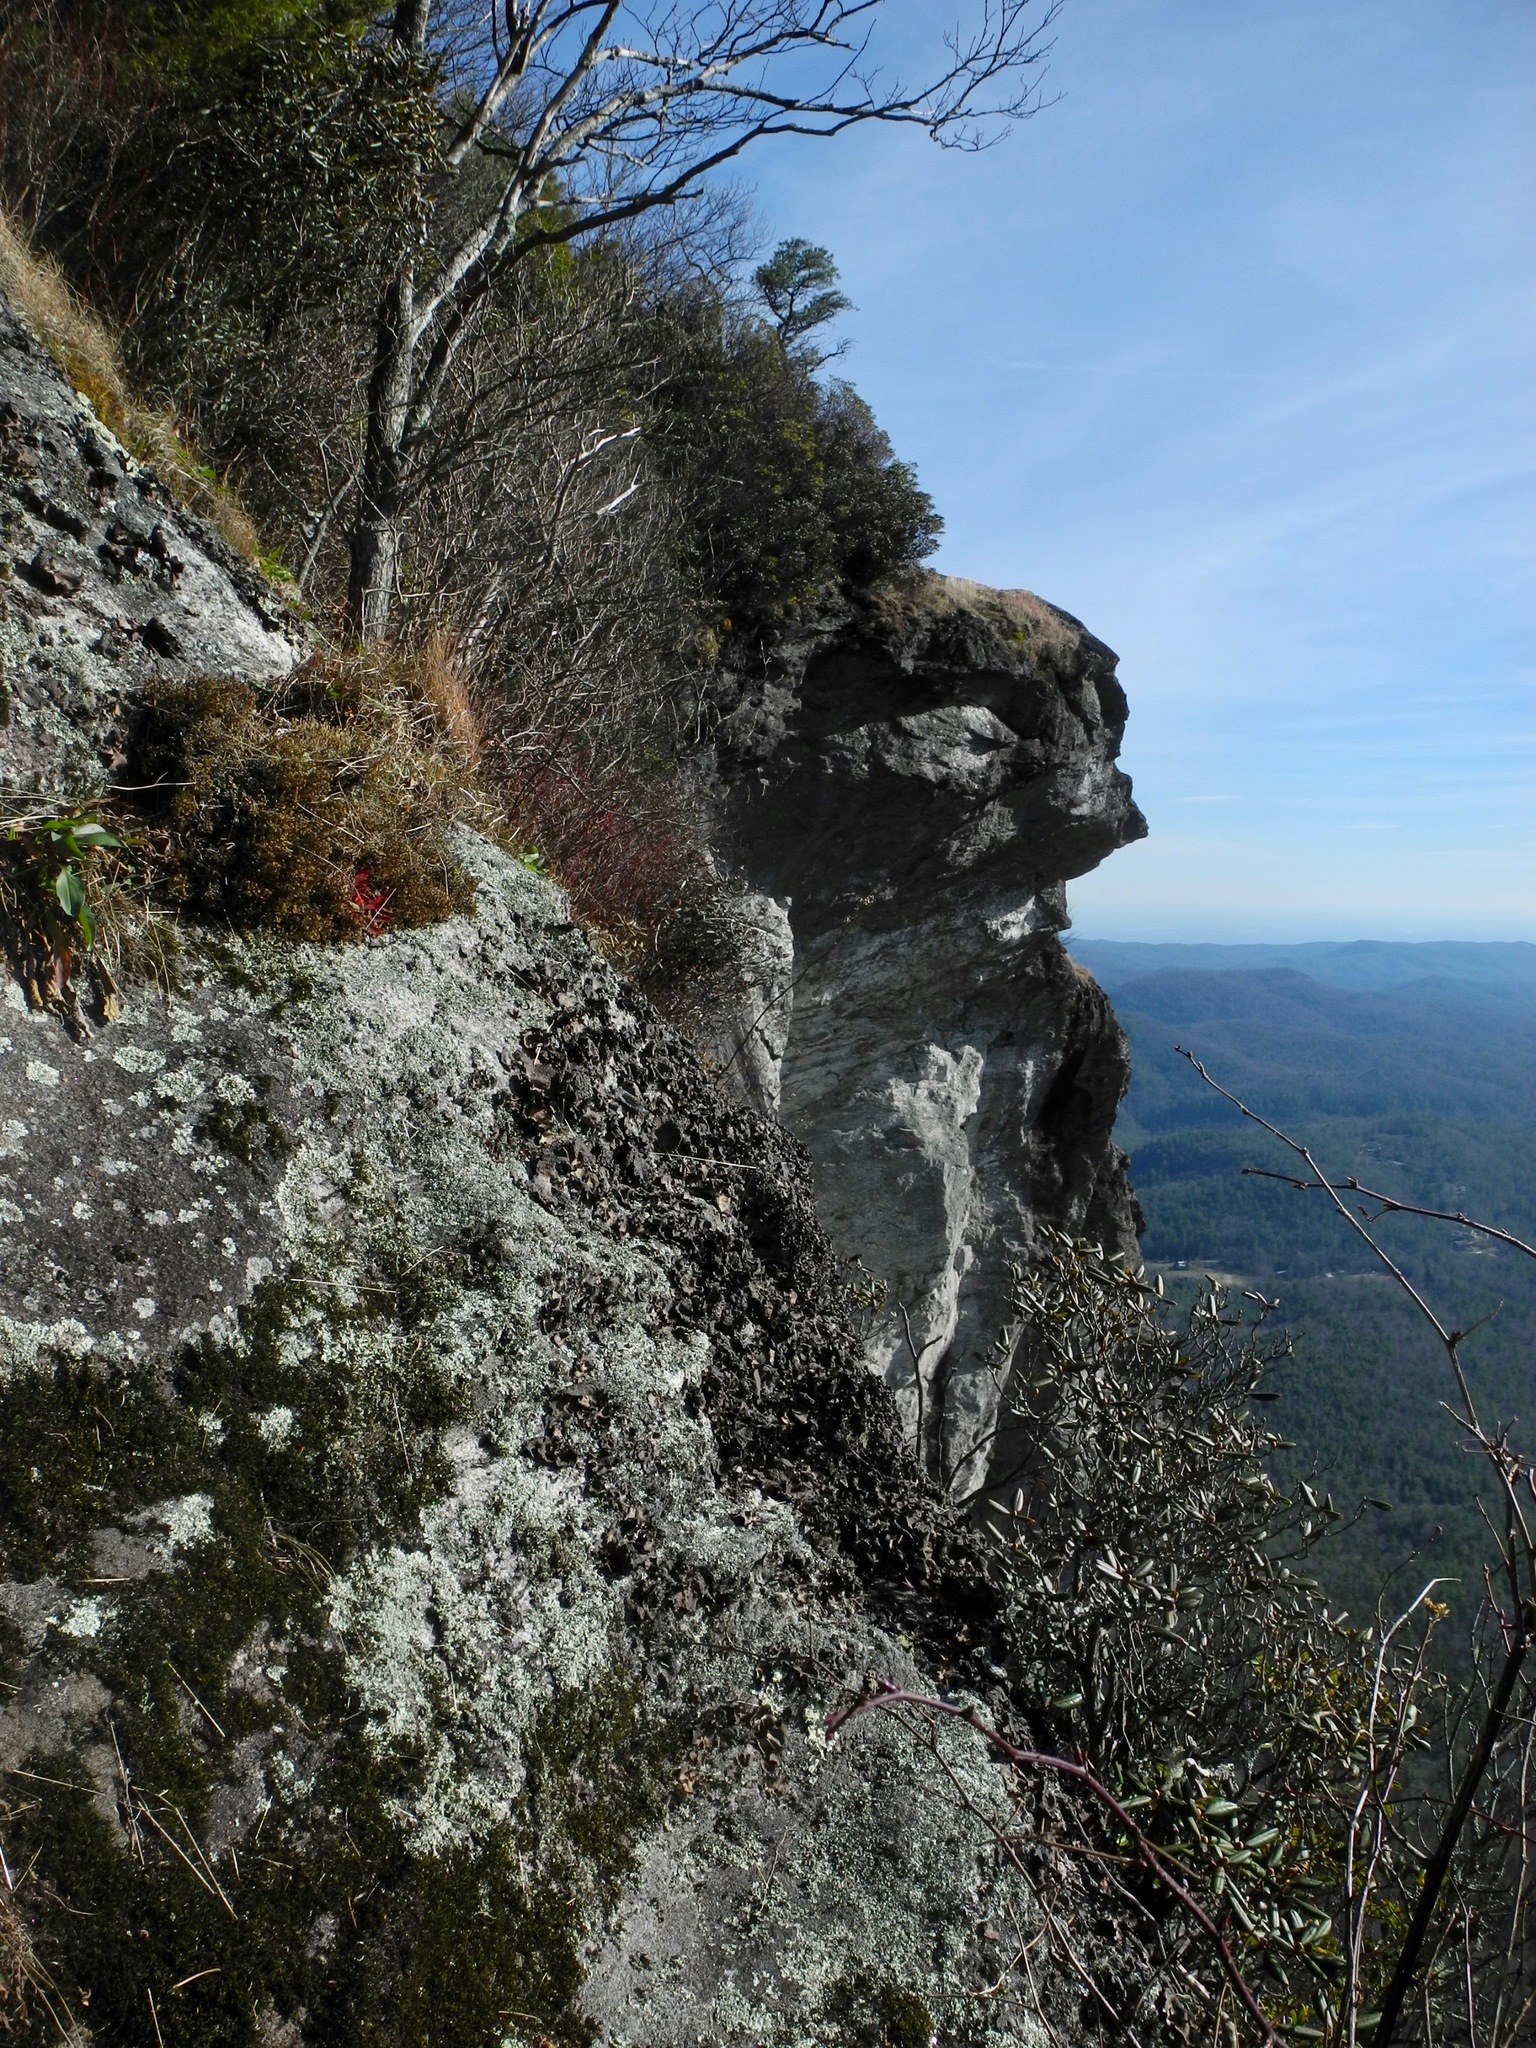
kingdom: Fungi
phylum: Ascomycota
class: Lecanoromycetes
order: Umbilicariales
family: Umbilicariaceae
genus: Umbilicaria
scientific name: Umbilicaria muhlenbergii
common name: Lesser rocktripe
